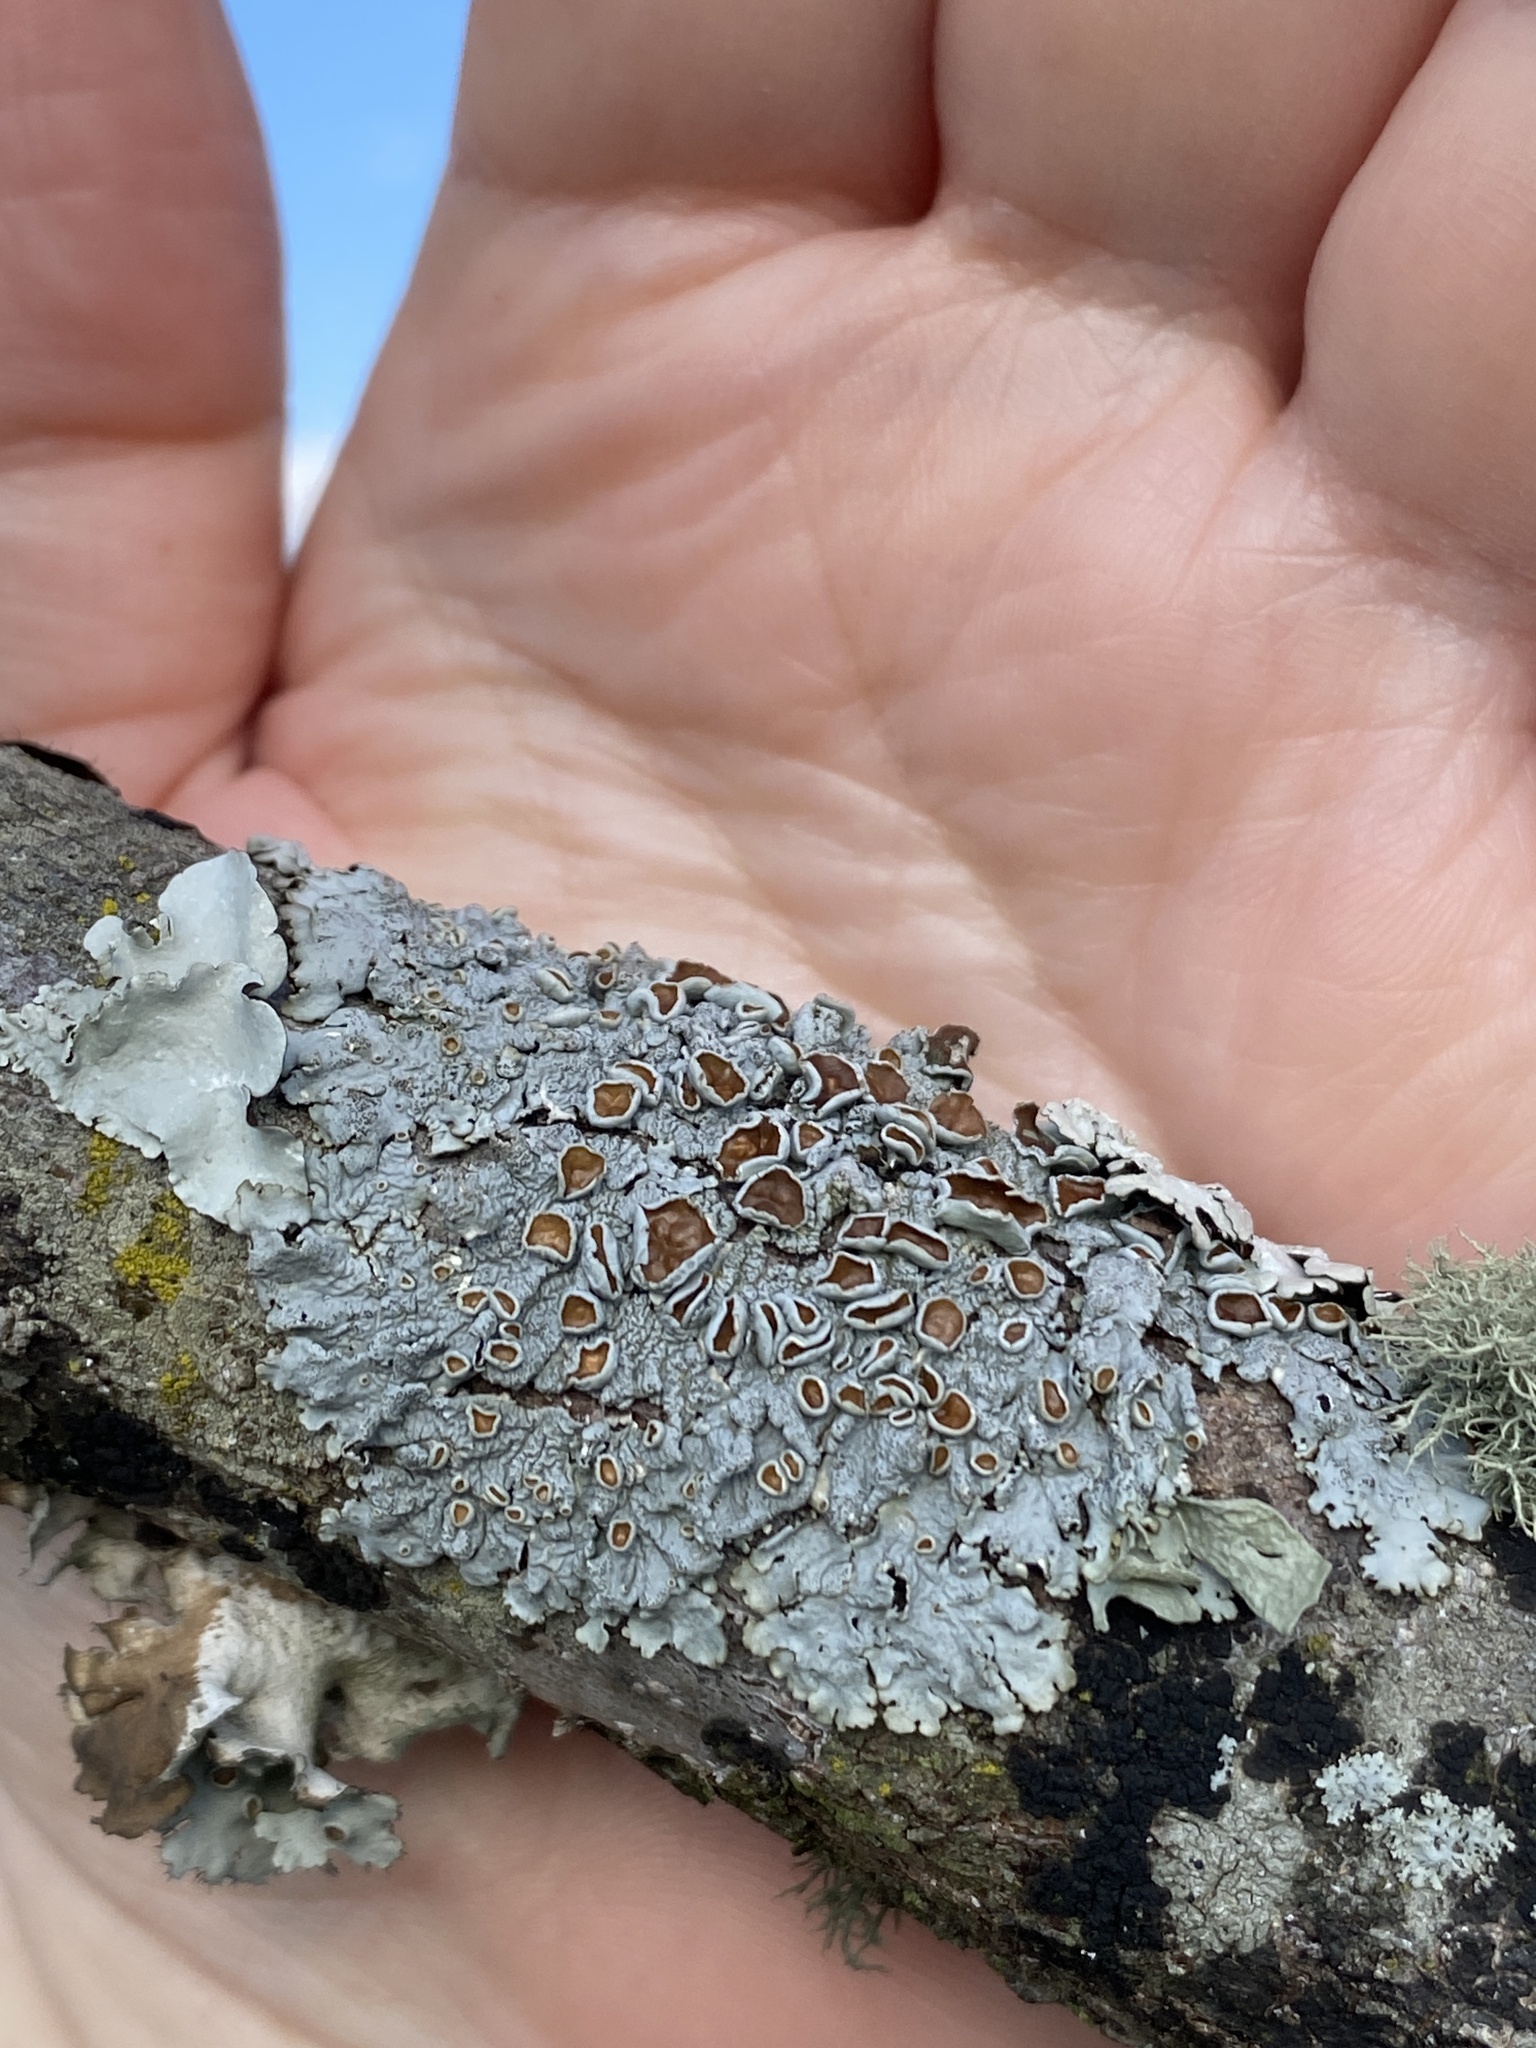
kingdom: Fungi
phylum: Ascomycota
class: Lecanoromycetes
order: Lecanorales
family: Parmeliaceae
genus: Myelochroa
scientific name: Myelochroa galbina
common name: Smooth axil-bristle lichen
